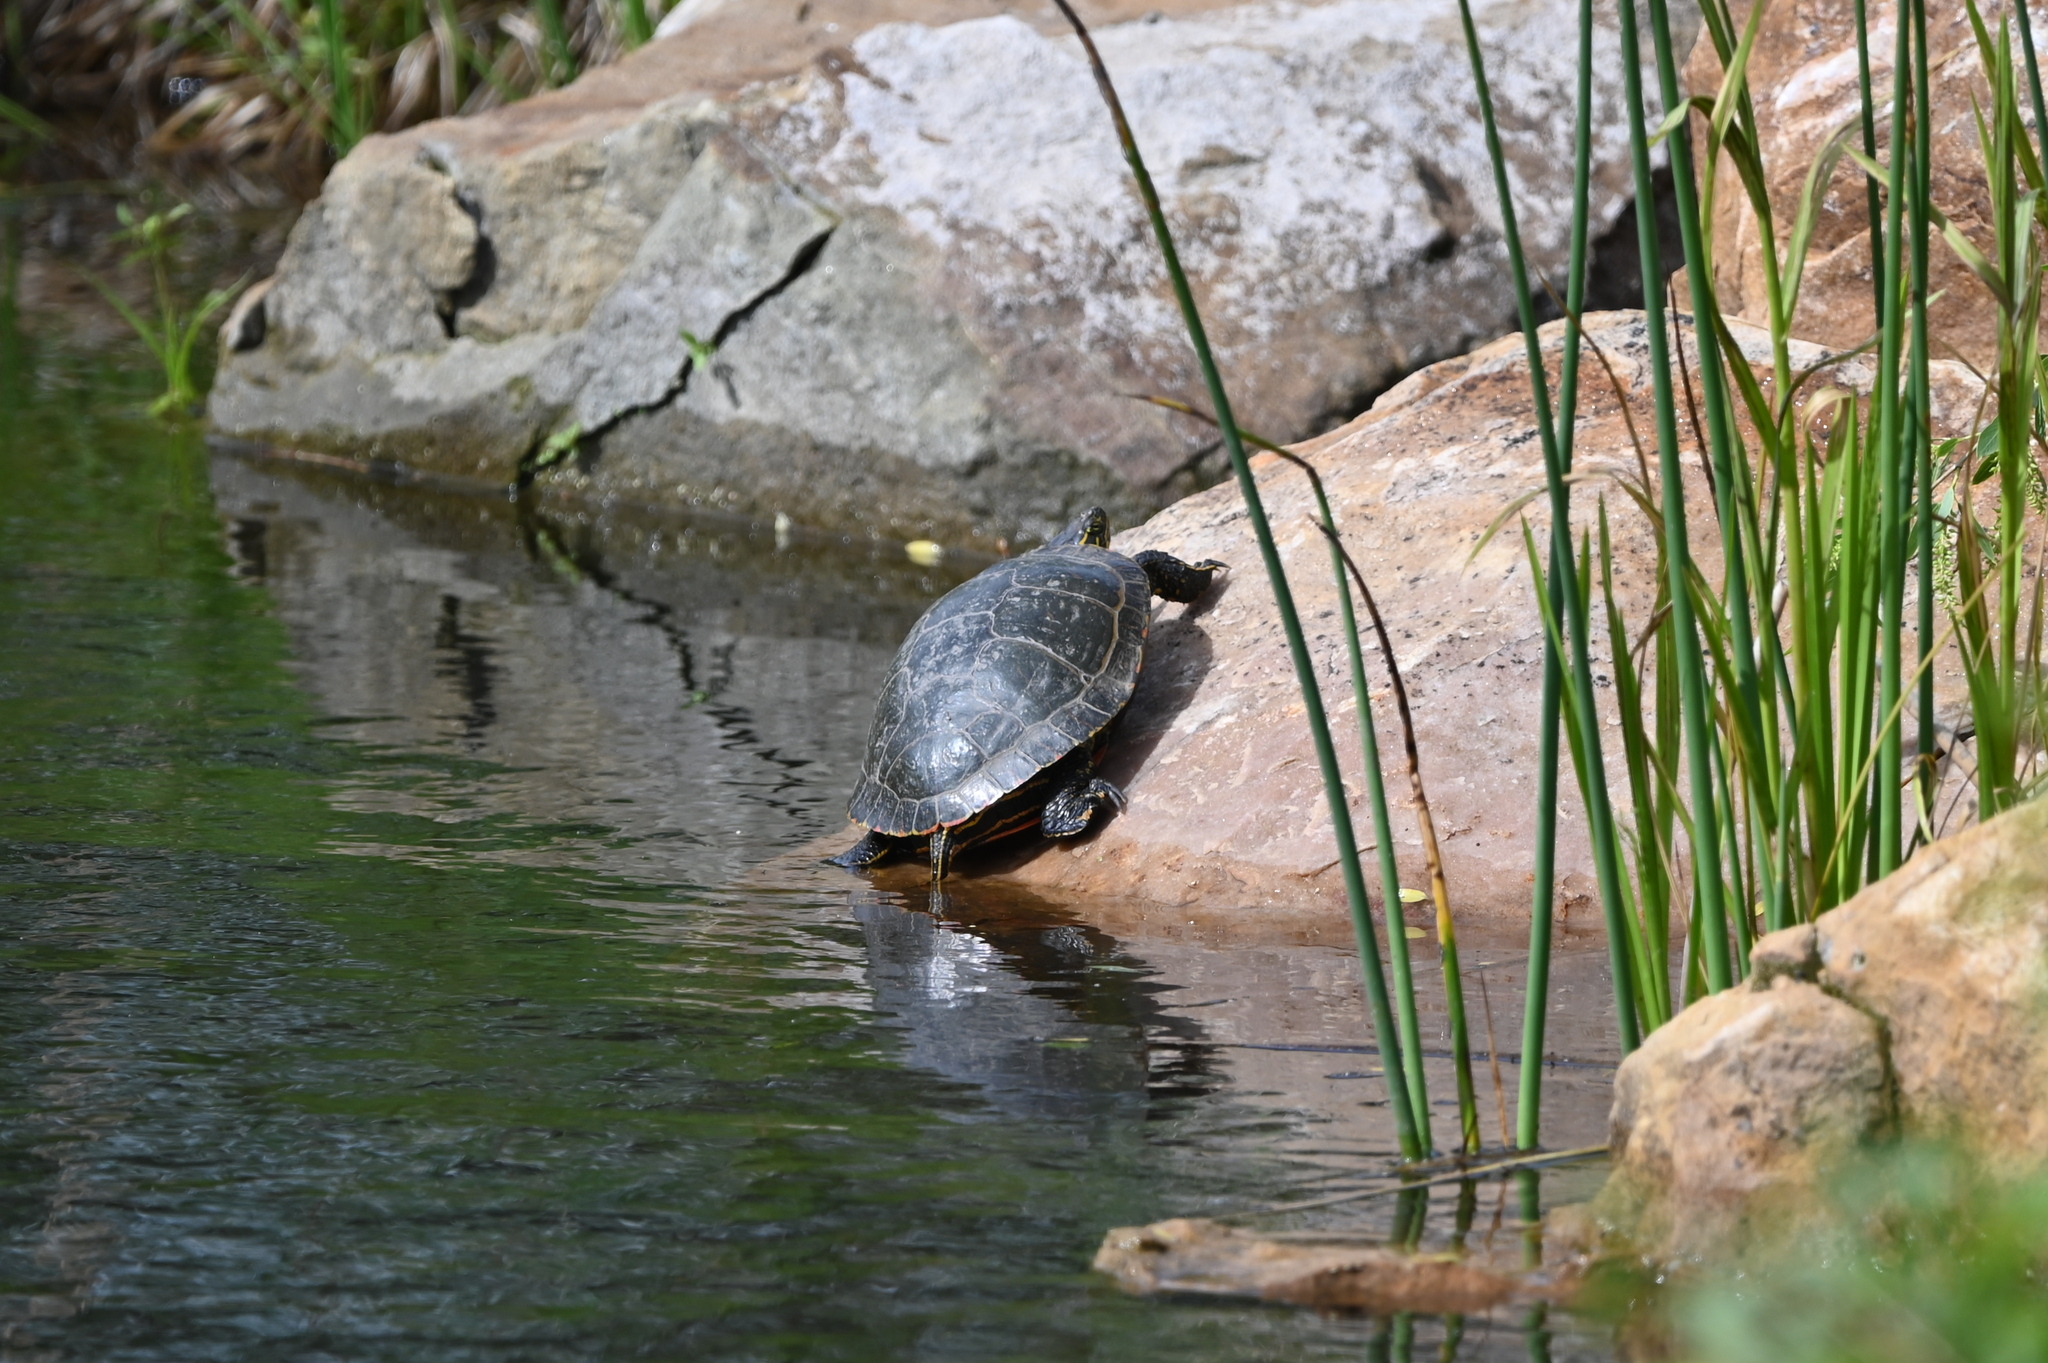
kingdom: Animalia
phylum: Chordata
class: Testudines
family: Emydidae
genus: Chrysemys
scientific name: Chrysemys picta
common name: Painted turtle
